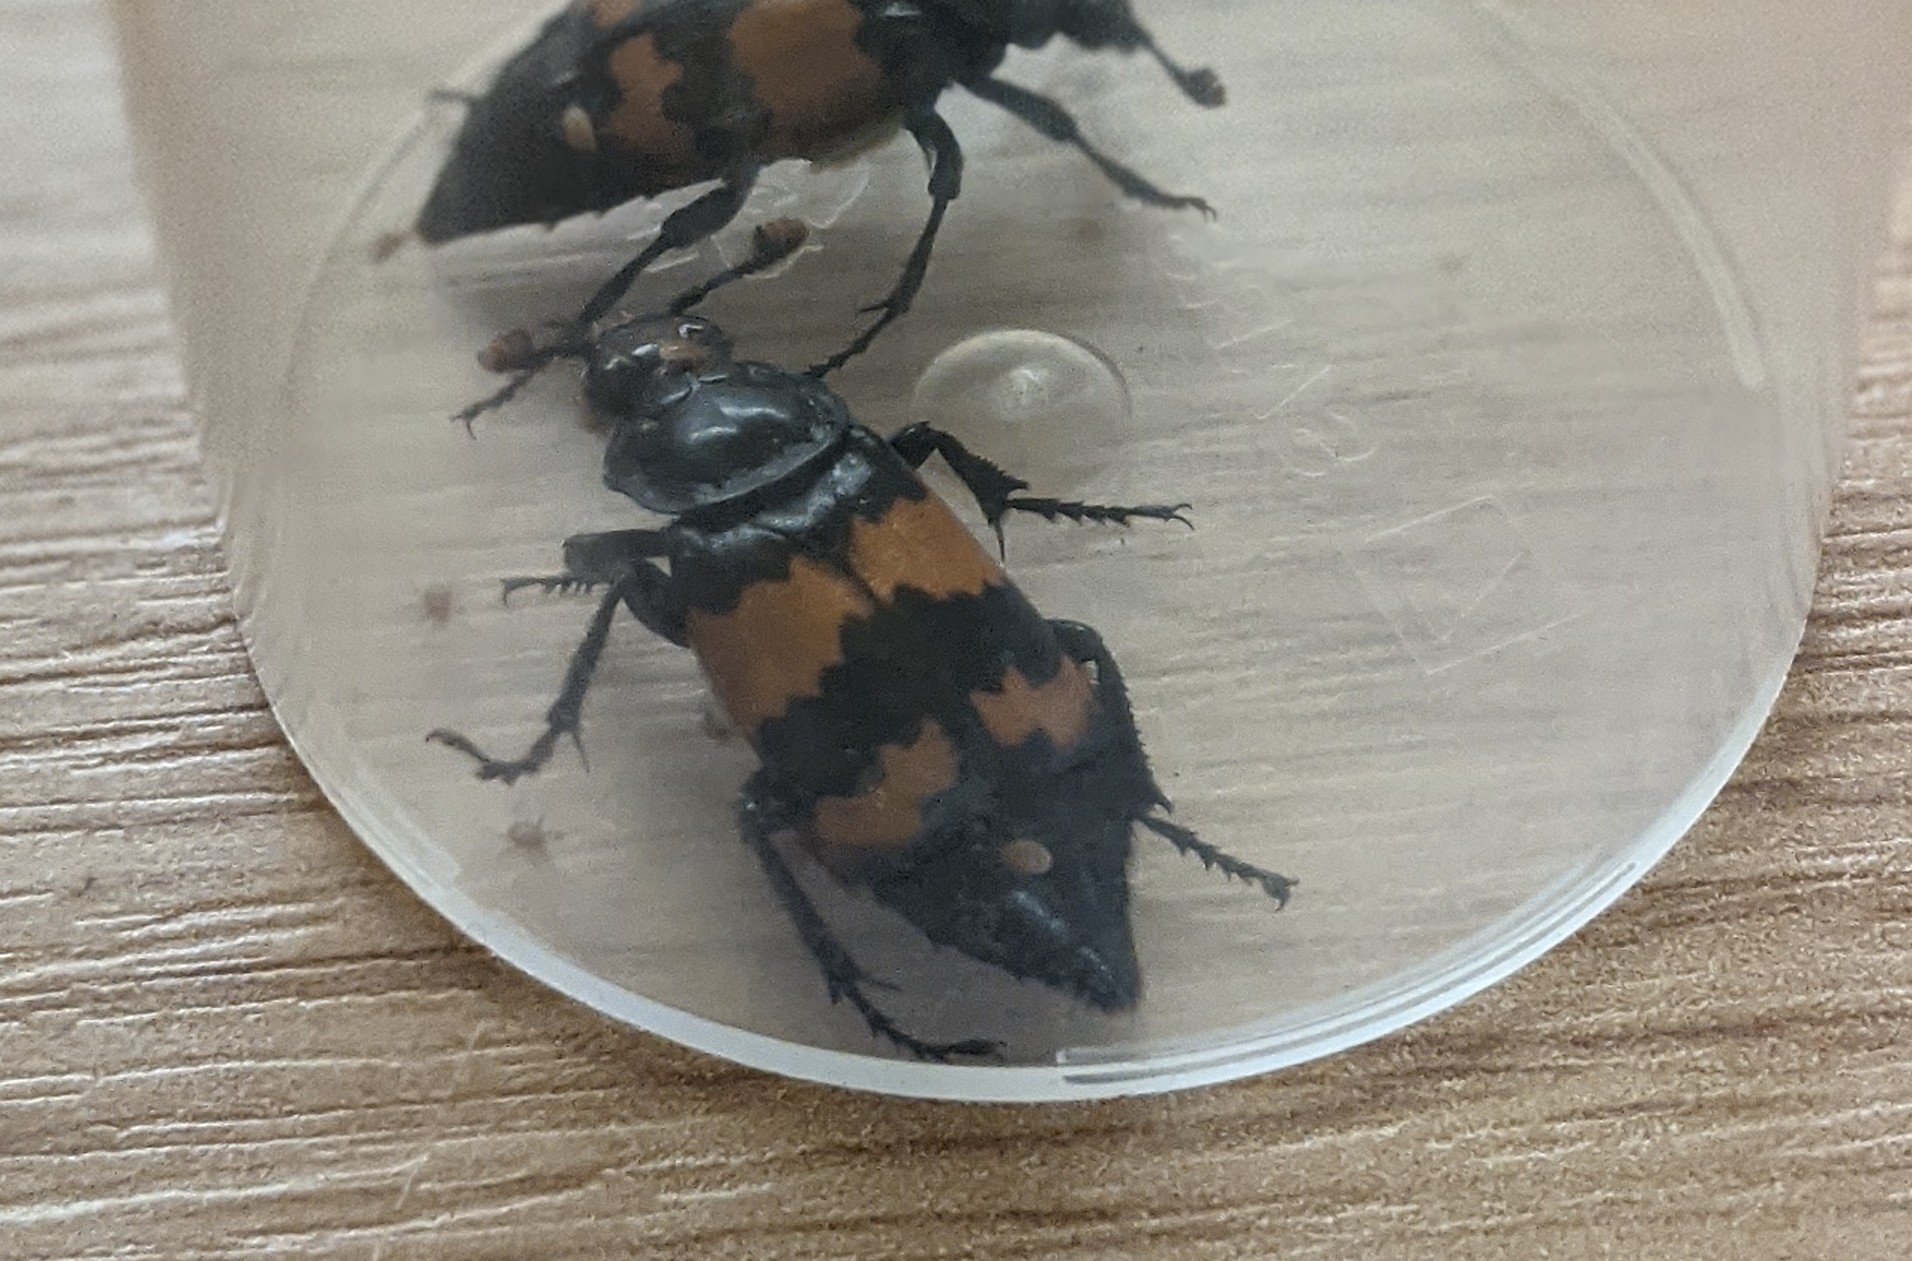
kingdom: Animalia
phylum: Arthropoda
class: Insecta
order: Coleoptera
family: Staphylinidae
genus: Nicrophorus
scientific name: Nicrophorus investigator
